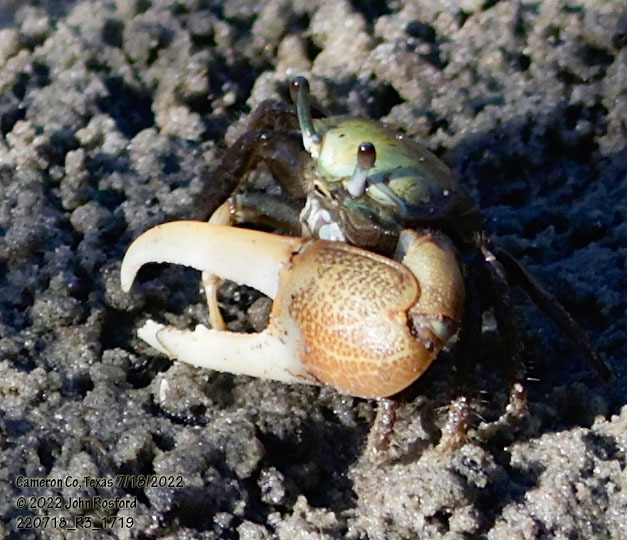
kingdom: Animalia
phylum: Arthropoda
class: Malacostraca
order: Decapoda
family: Ocypodidae
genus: Minuca
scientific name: Minuca longisignalis
